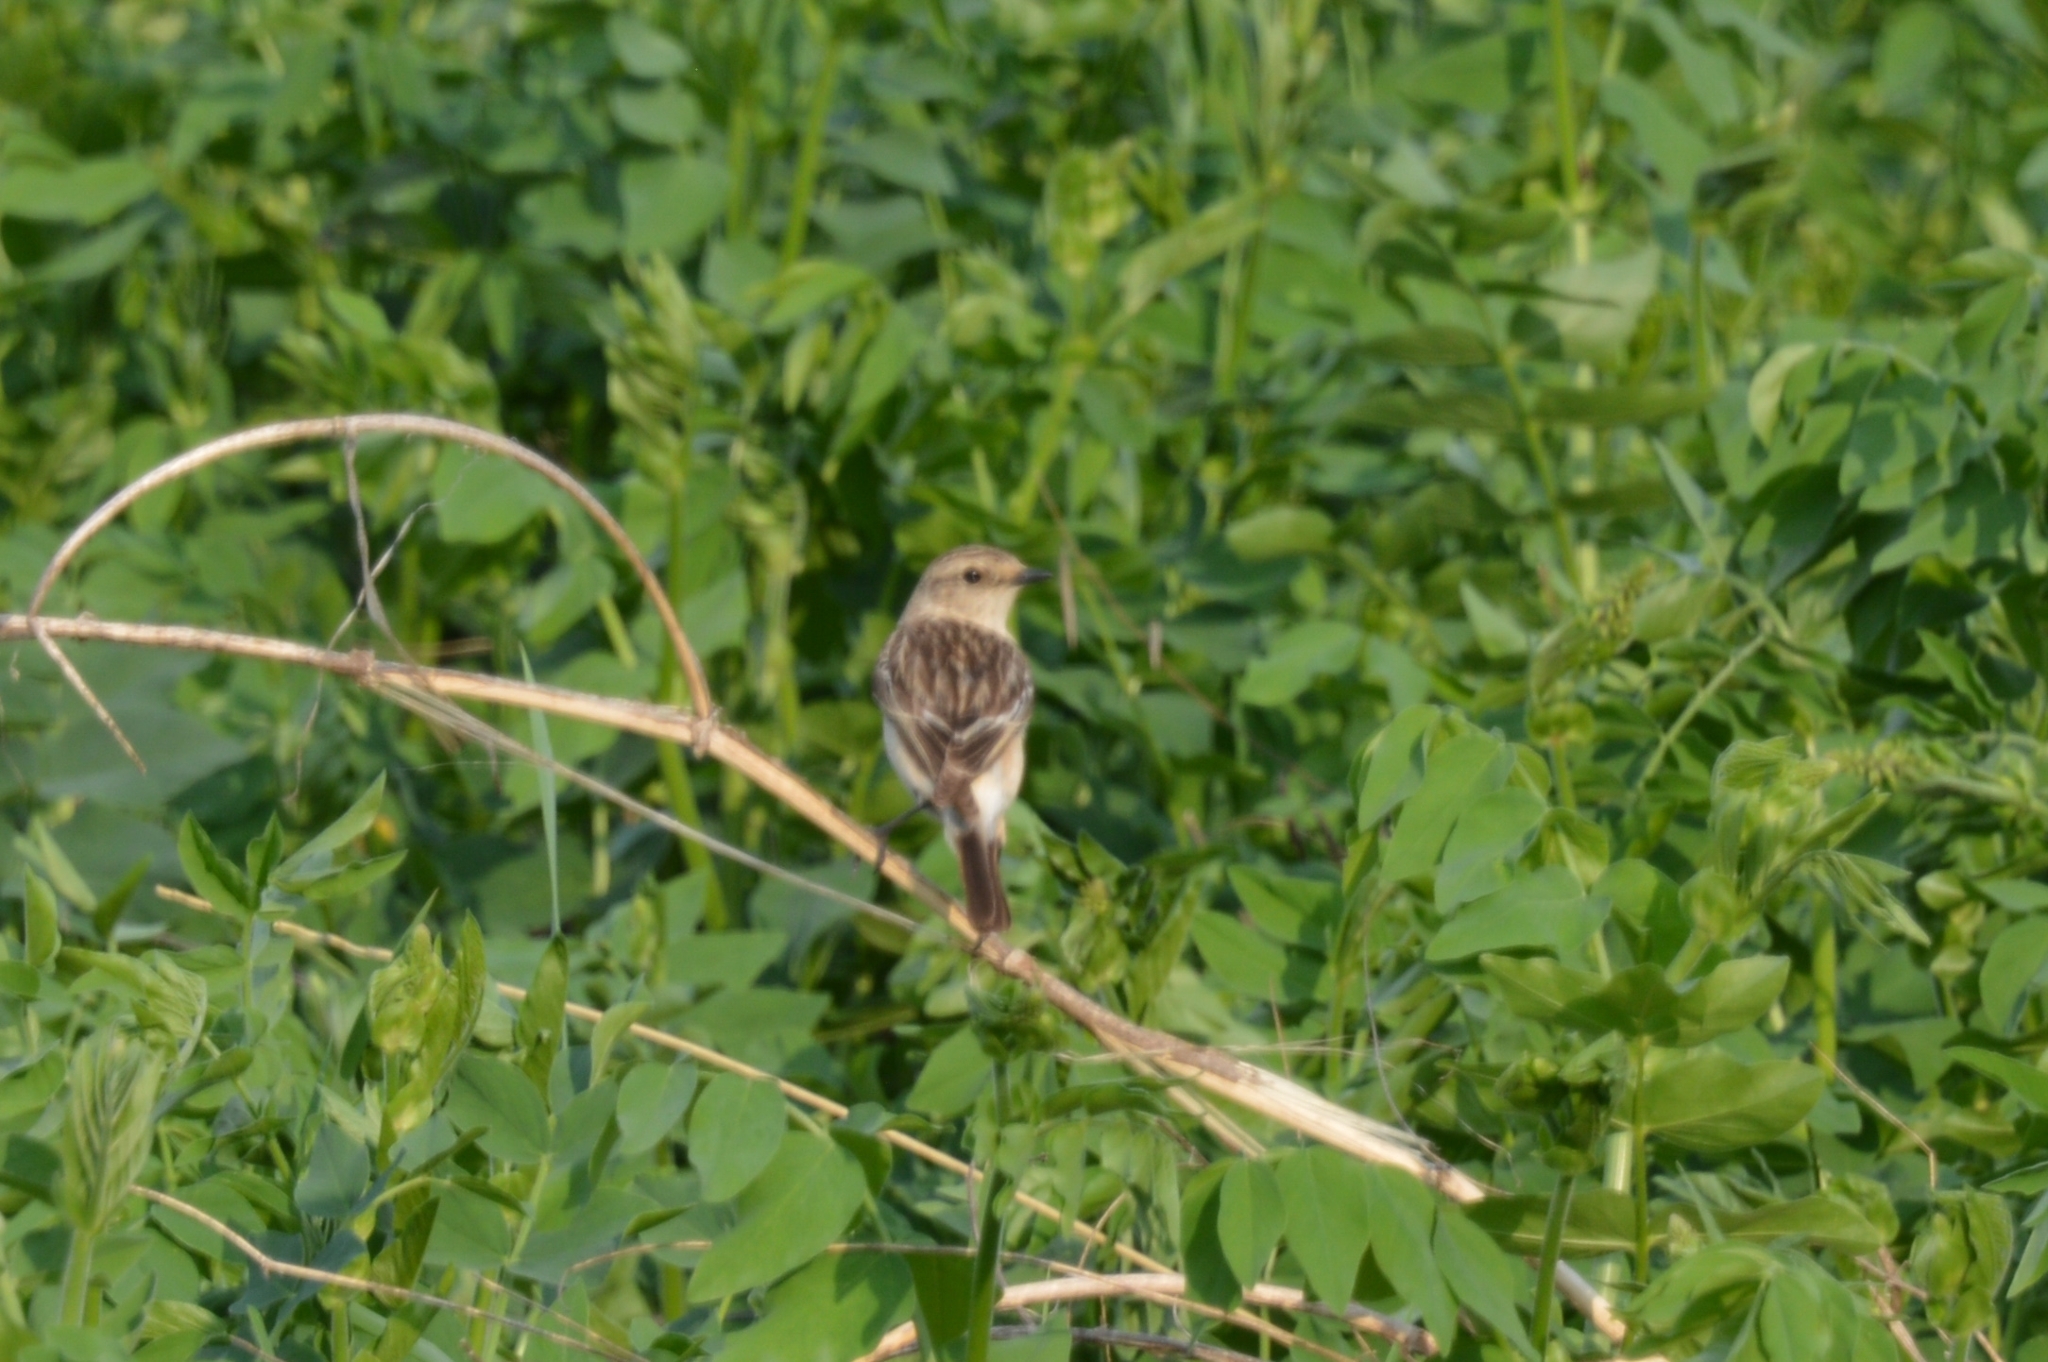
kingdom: Animalia
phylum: Chordata
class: Aves
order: Passeriformes
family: Muscicapidae
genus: Saxicola
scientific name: Saxicola maurus
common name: Siberian stonechat
